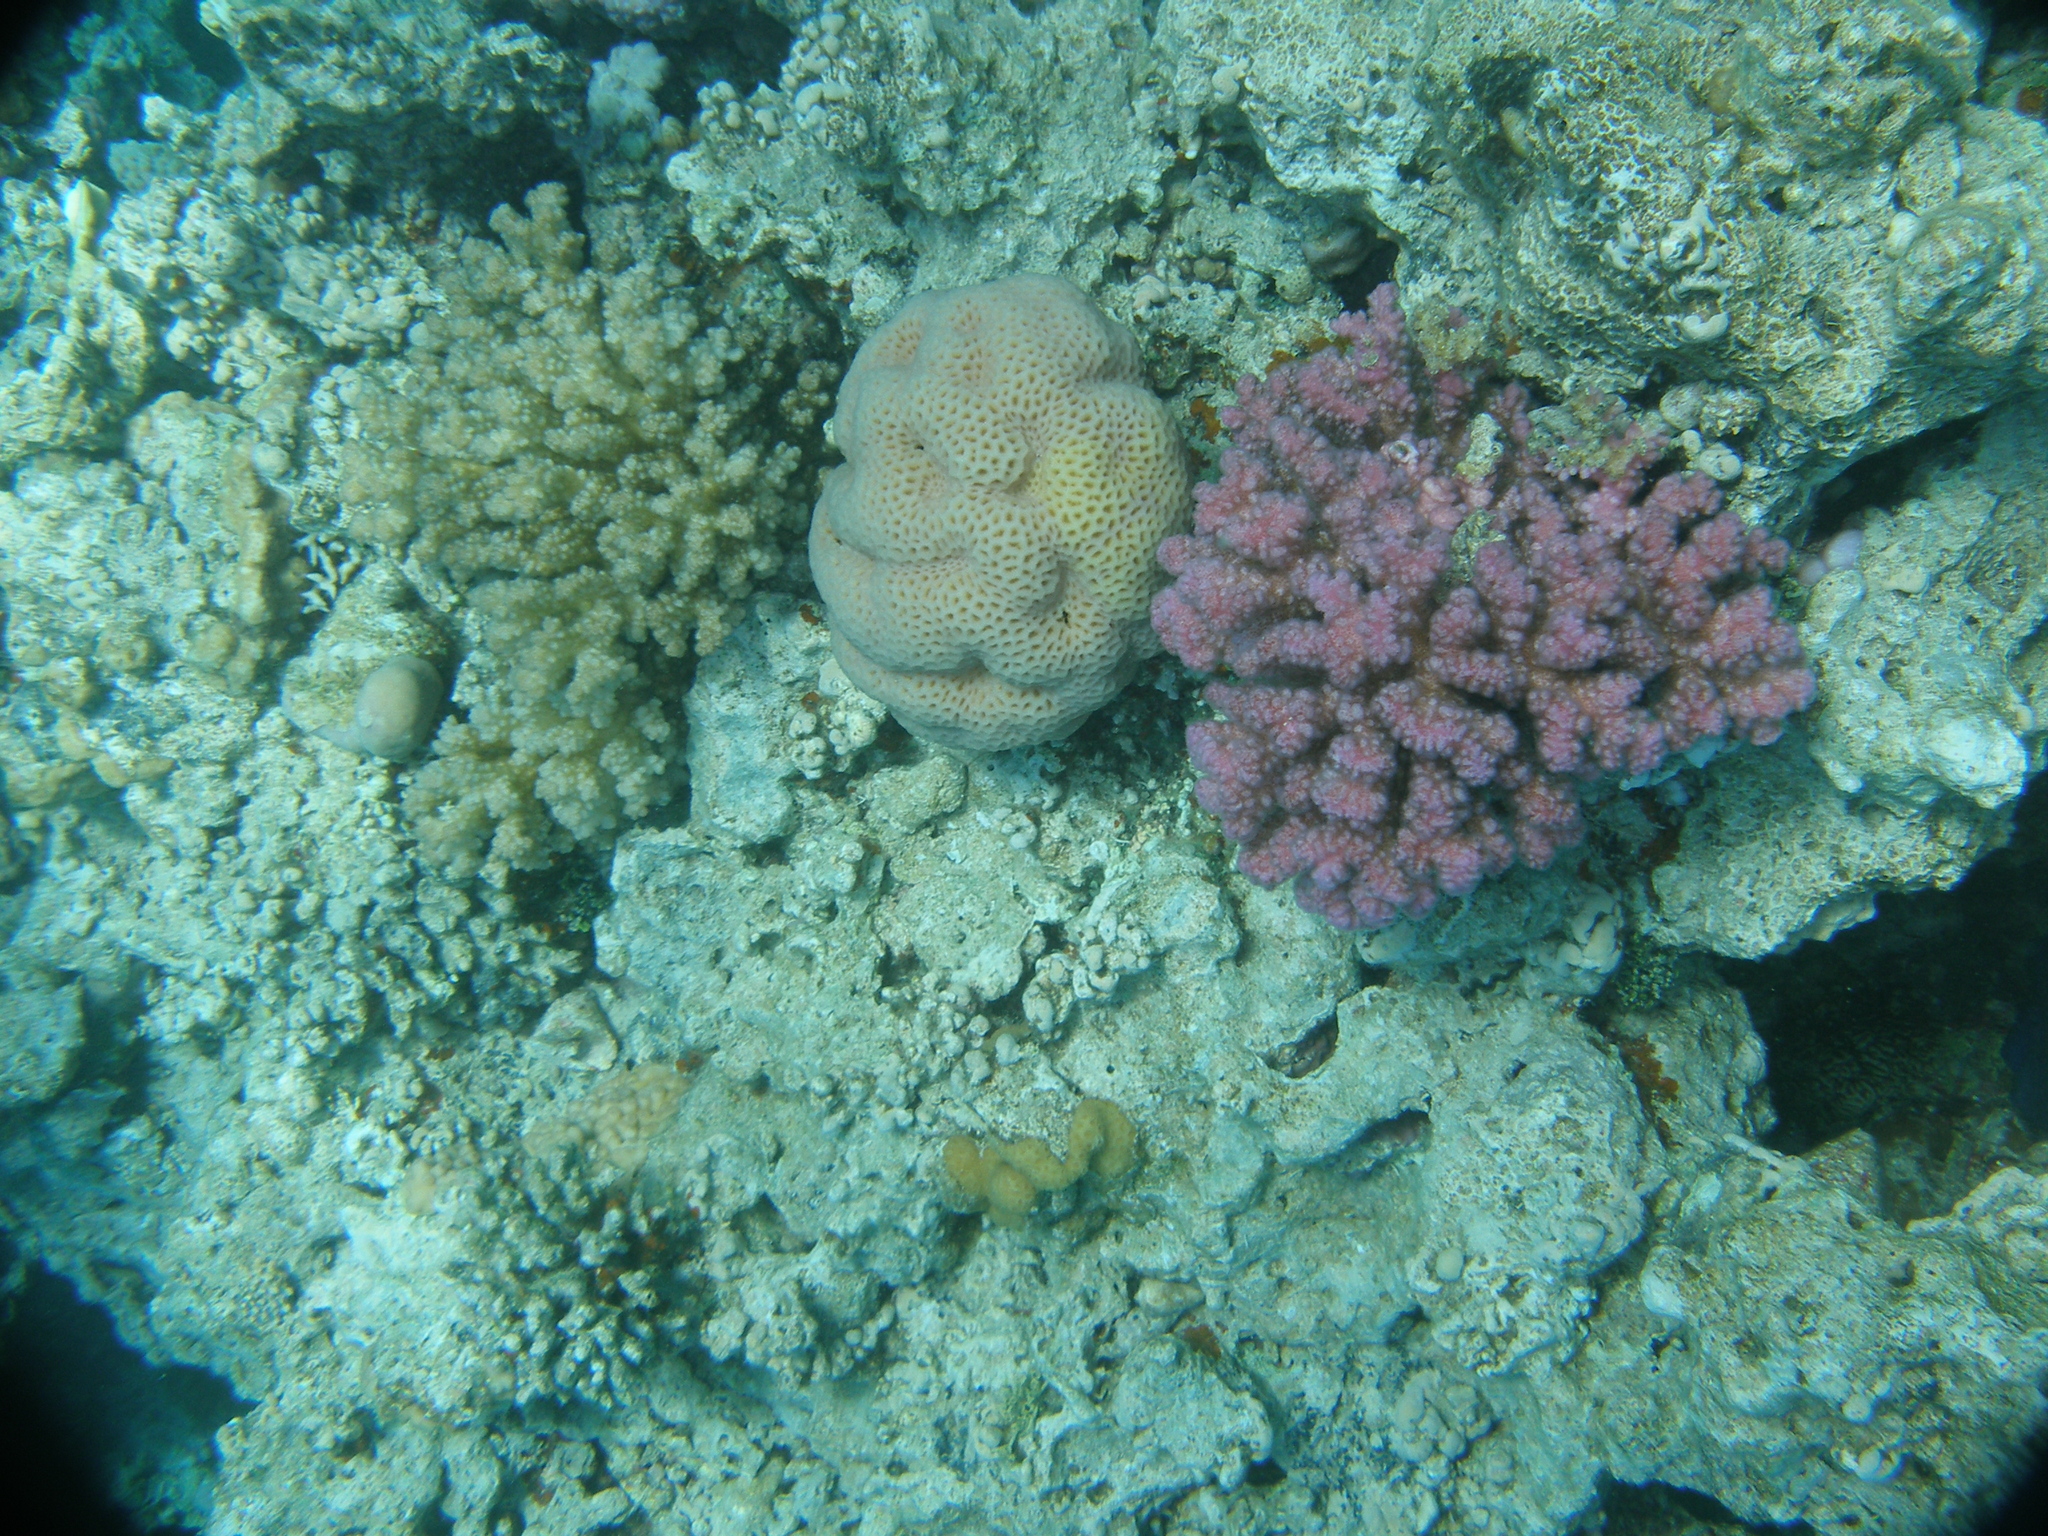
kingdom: Animalia
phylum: Cnidaria
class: Anthozoa
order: Scleractinia
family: Pocilloporidae
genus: Pocillopora
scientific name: Pocillopora verrucosa
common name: Cauliflower coral
